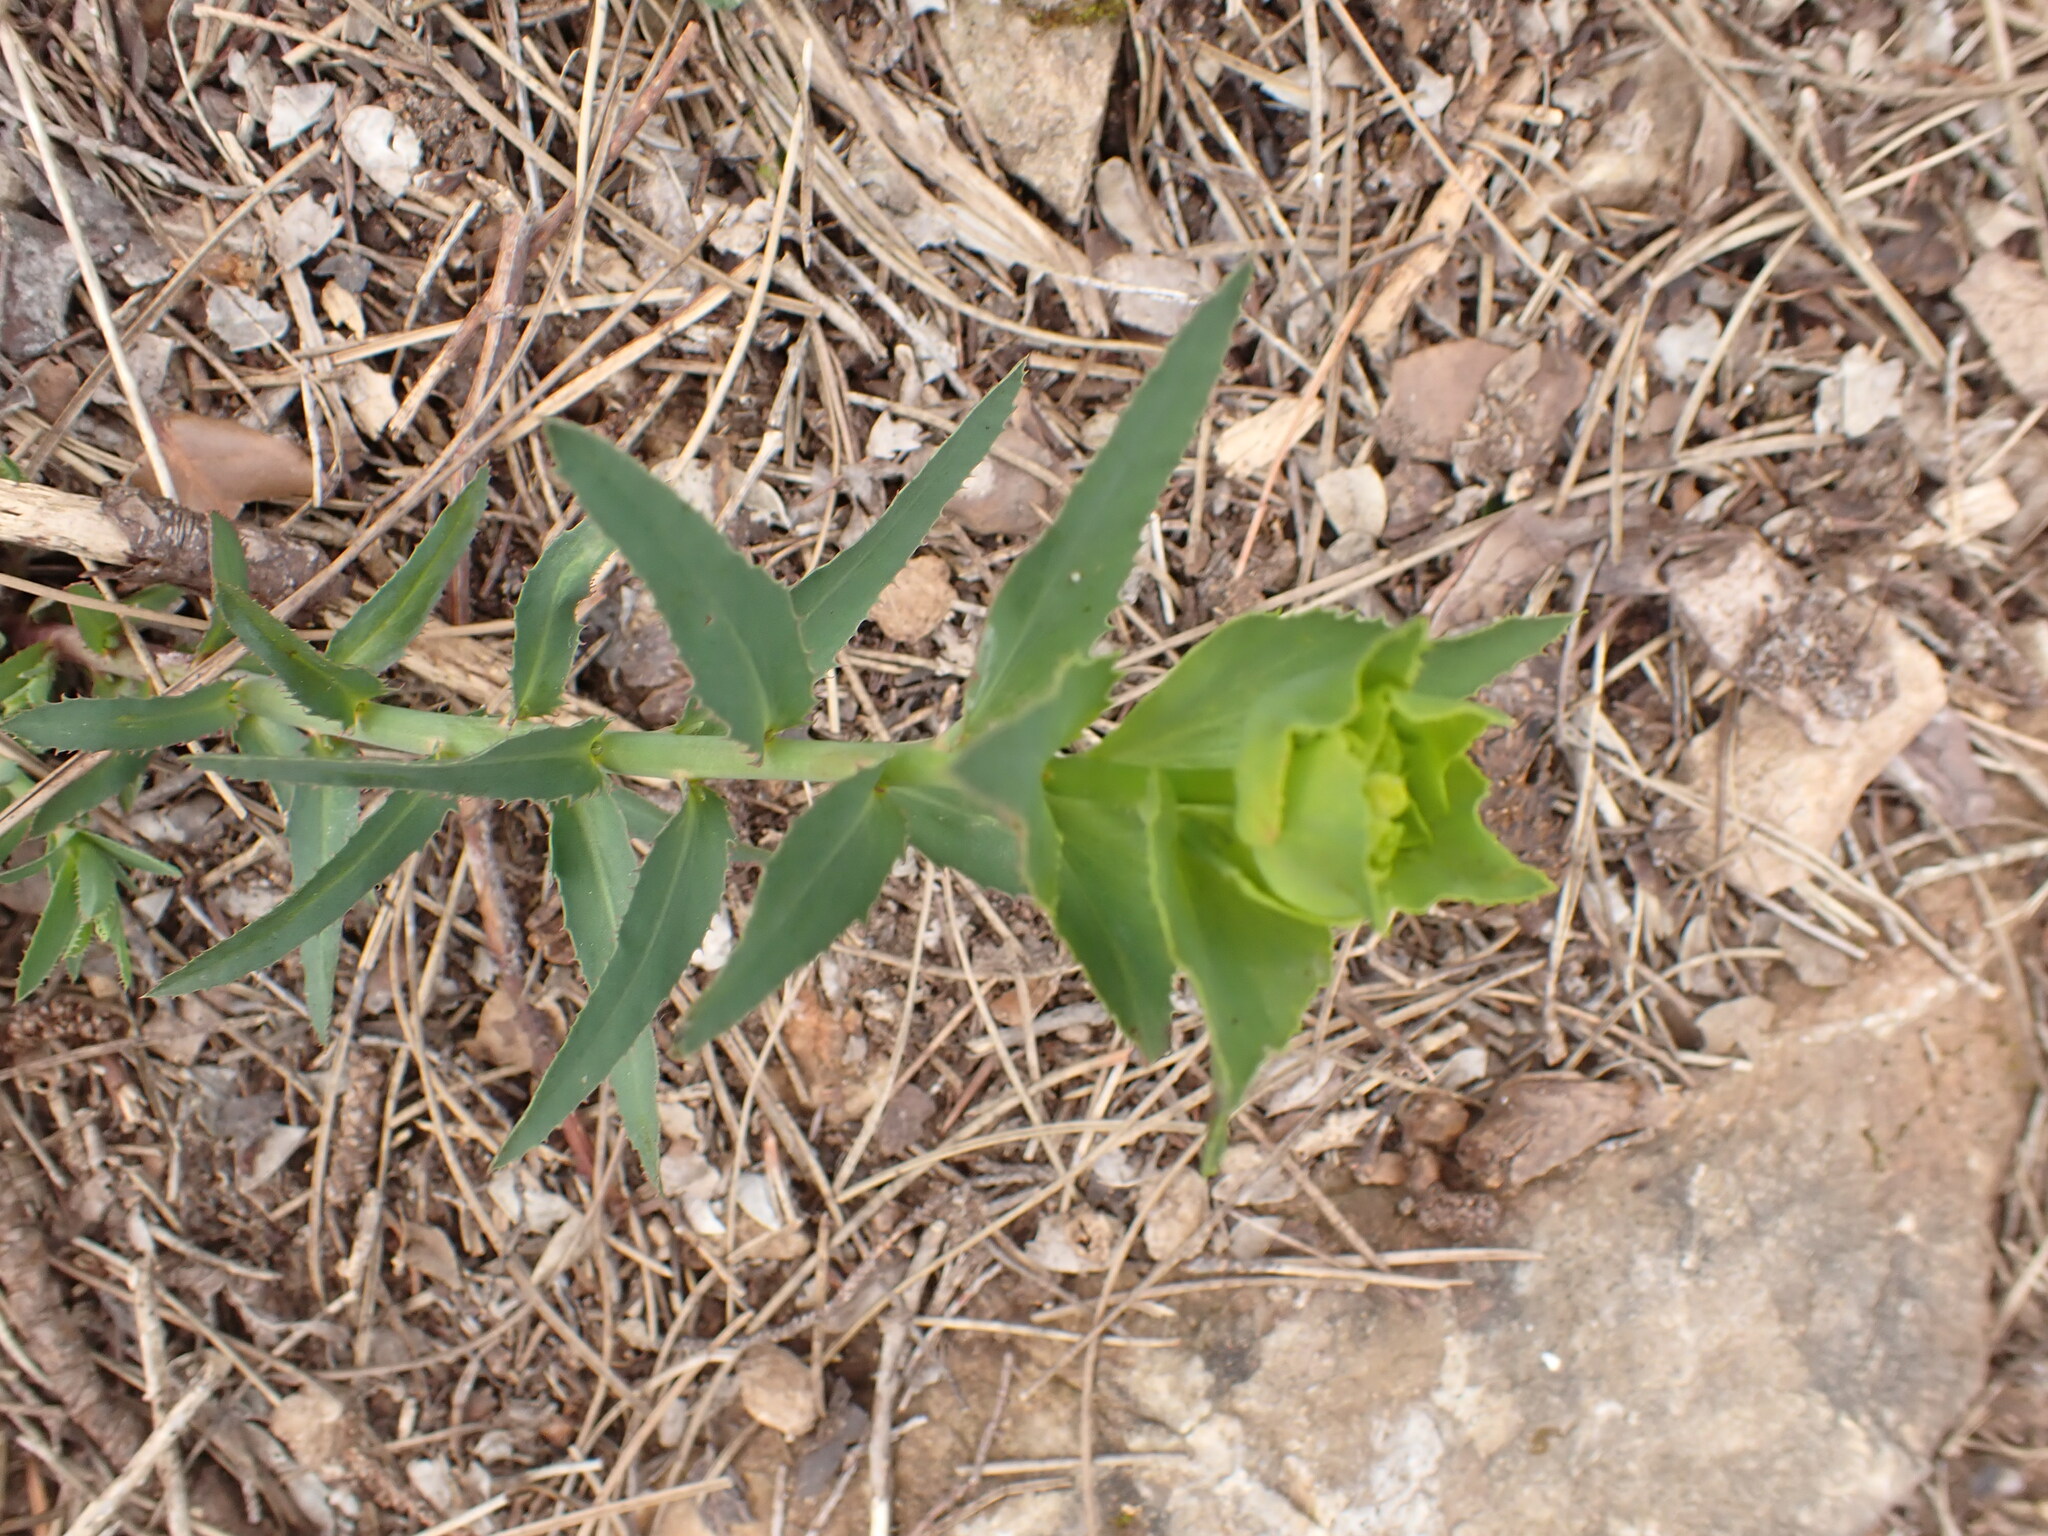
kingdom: Plantae
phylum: Tracheophyta
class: Magnoliopsida
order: Malpighiales
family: Euphorbiaceae
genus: Euphorbia
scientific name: Euphorbia serrata
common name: Serrate spurge
